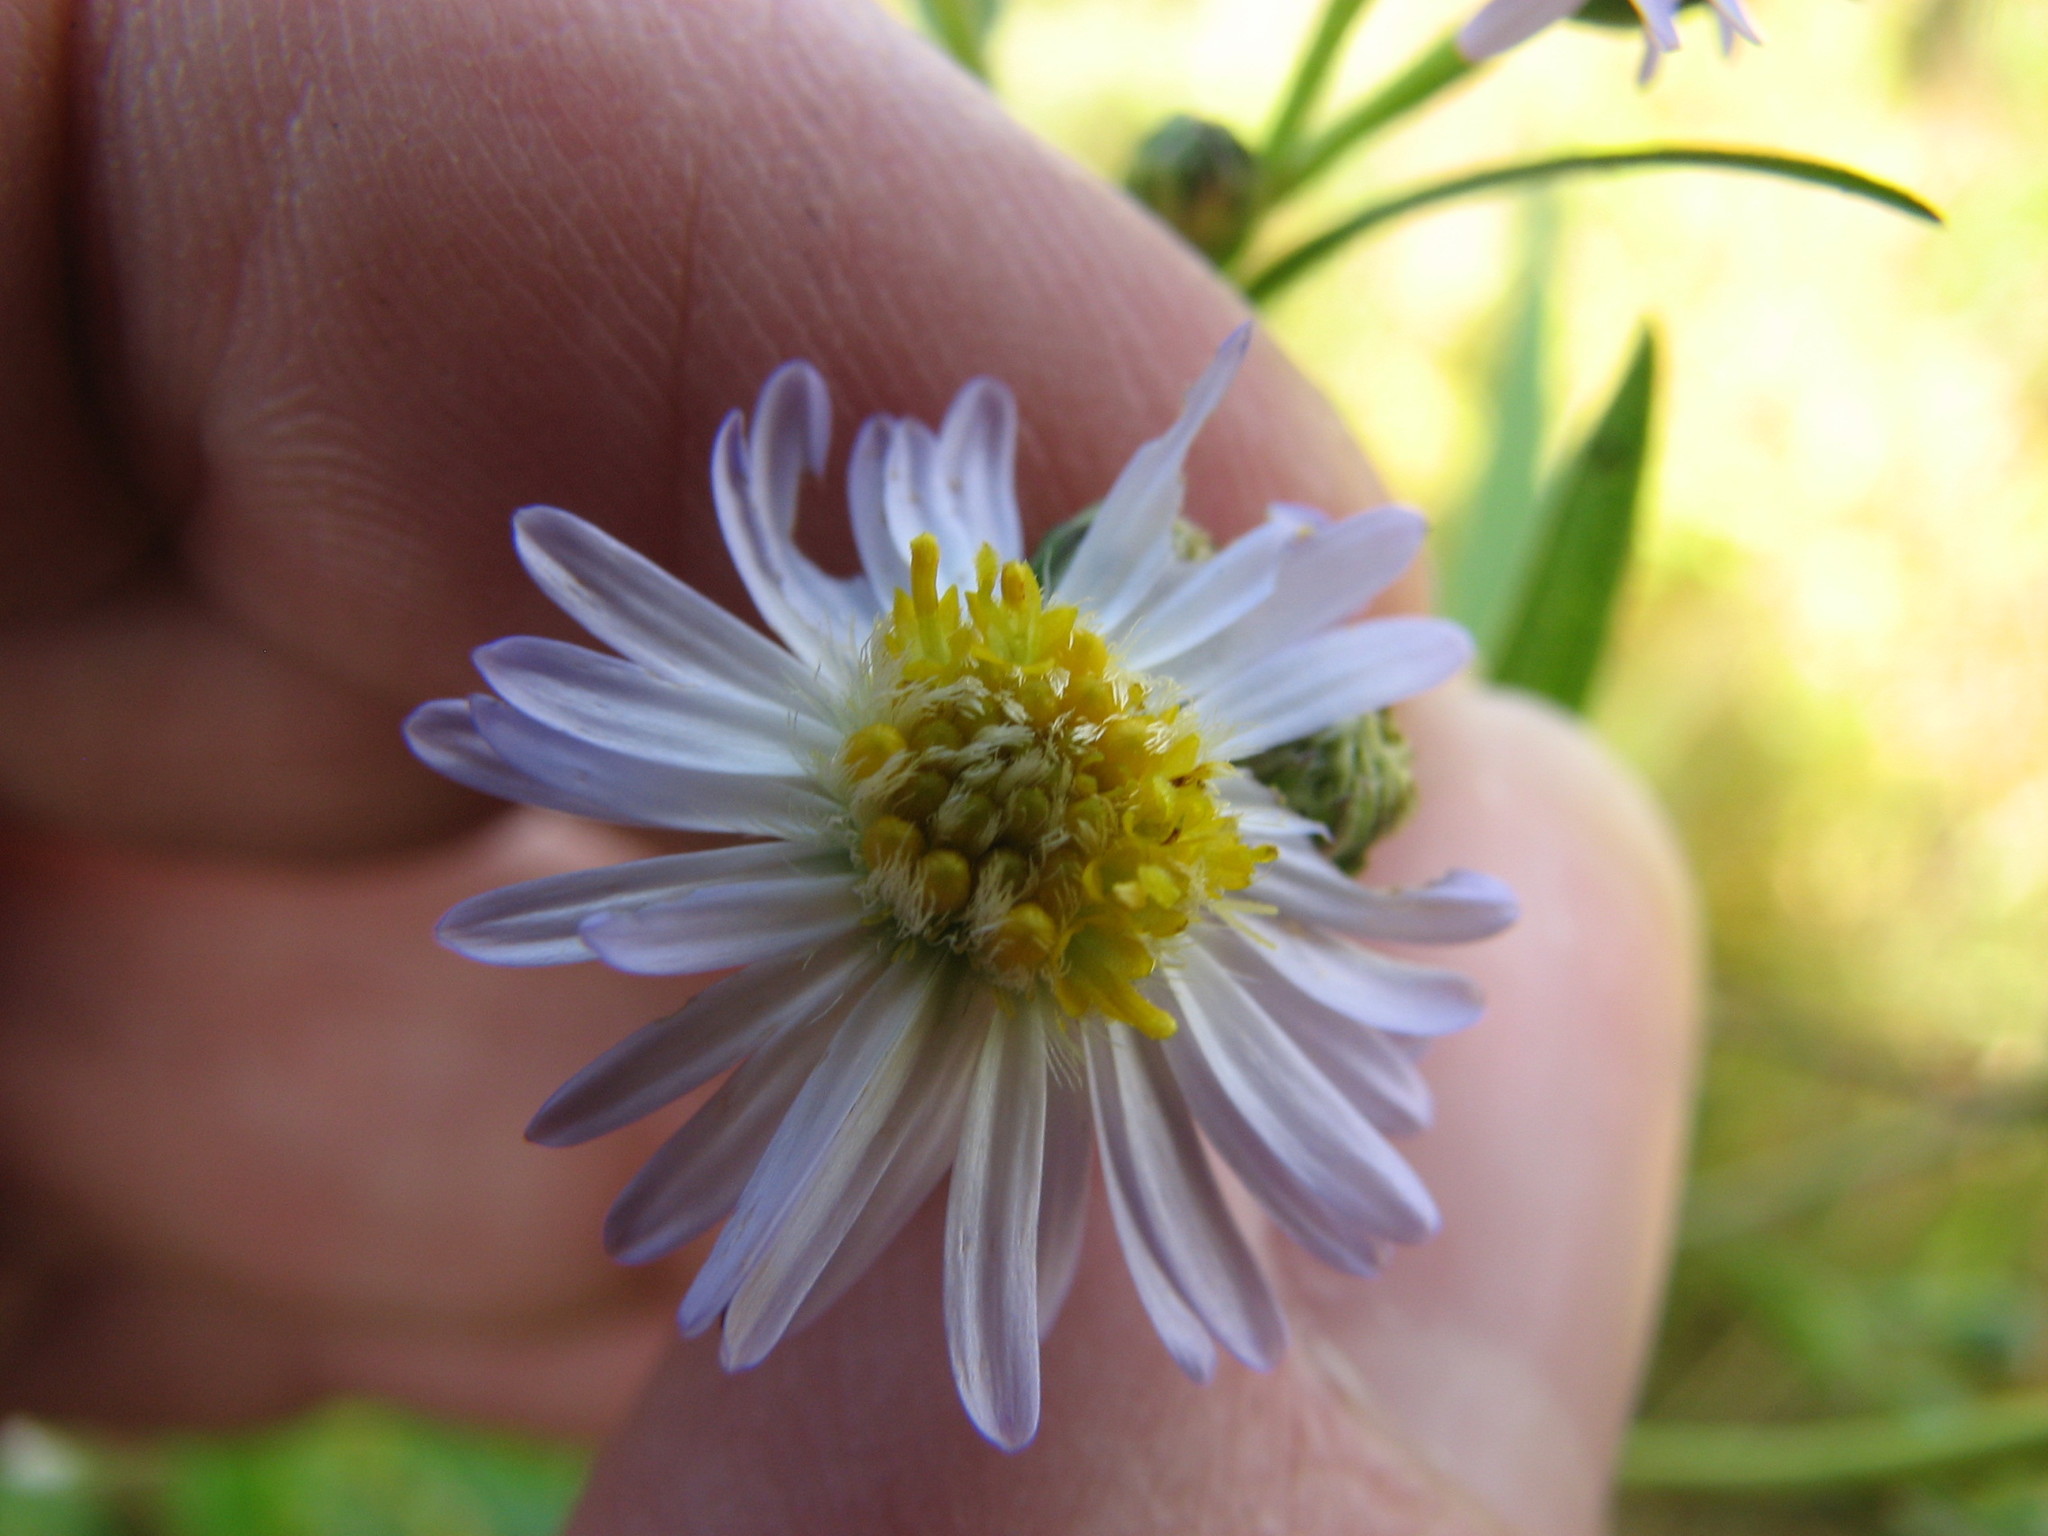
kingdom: Plantae
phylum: Tracheophyta
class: Magnoliopsida
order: Asterales
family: Asteraceae
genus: Symphyotrichum
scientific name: Symphyotrichum lanceolatum
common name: Panicled aster
